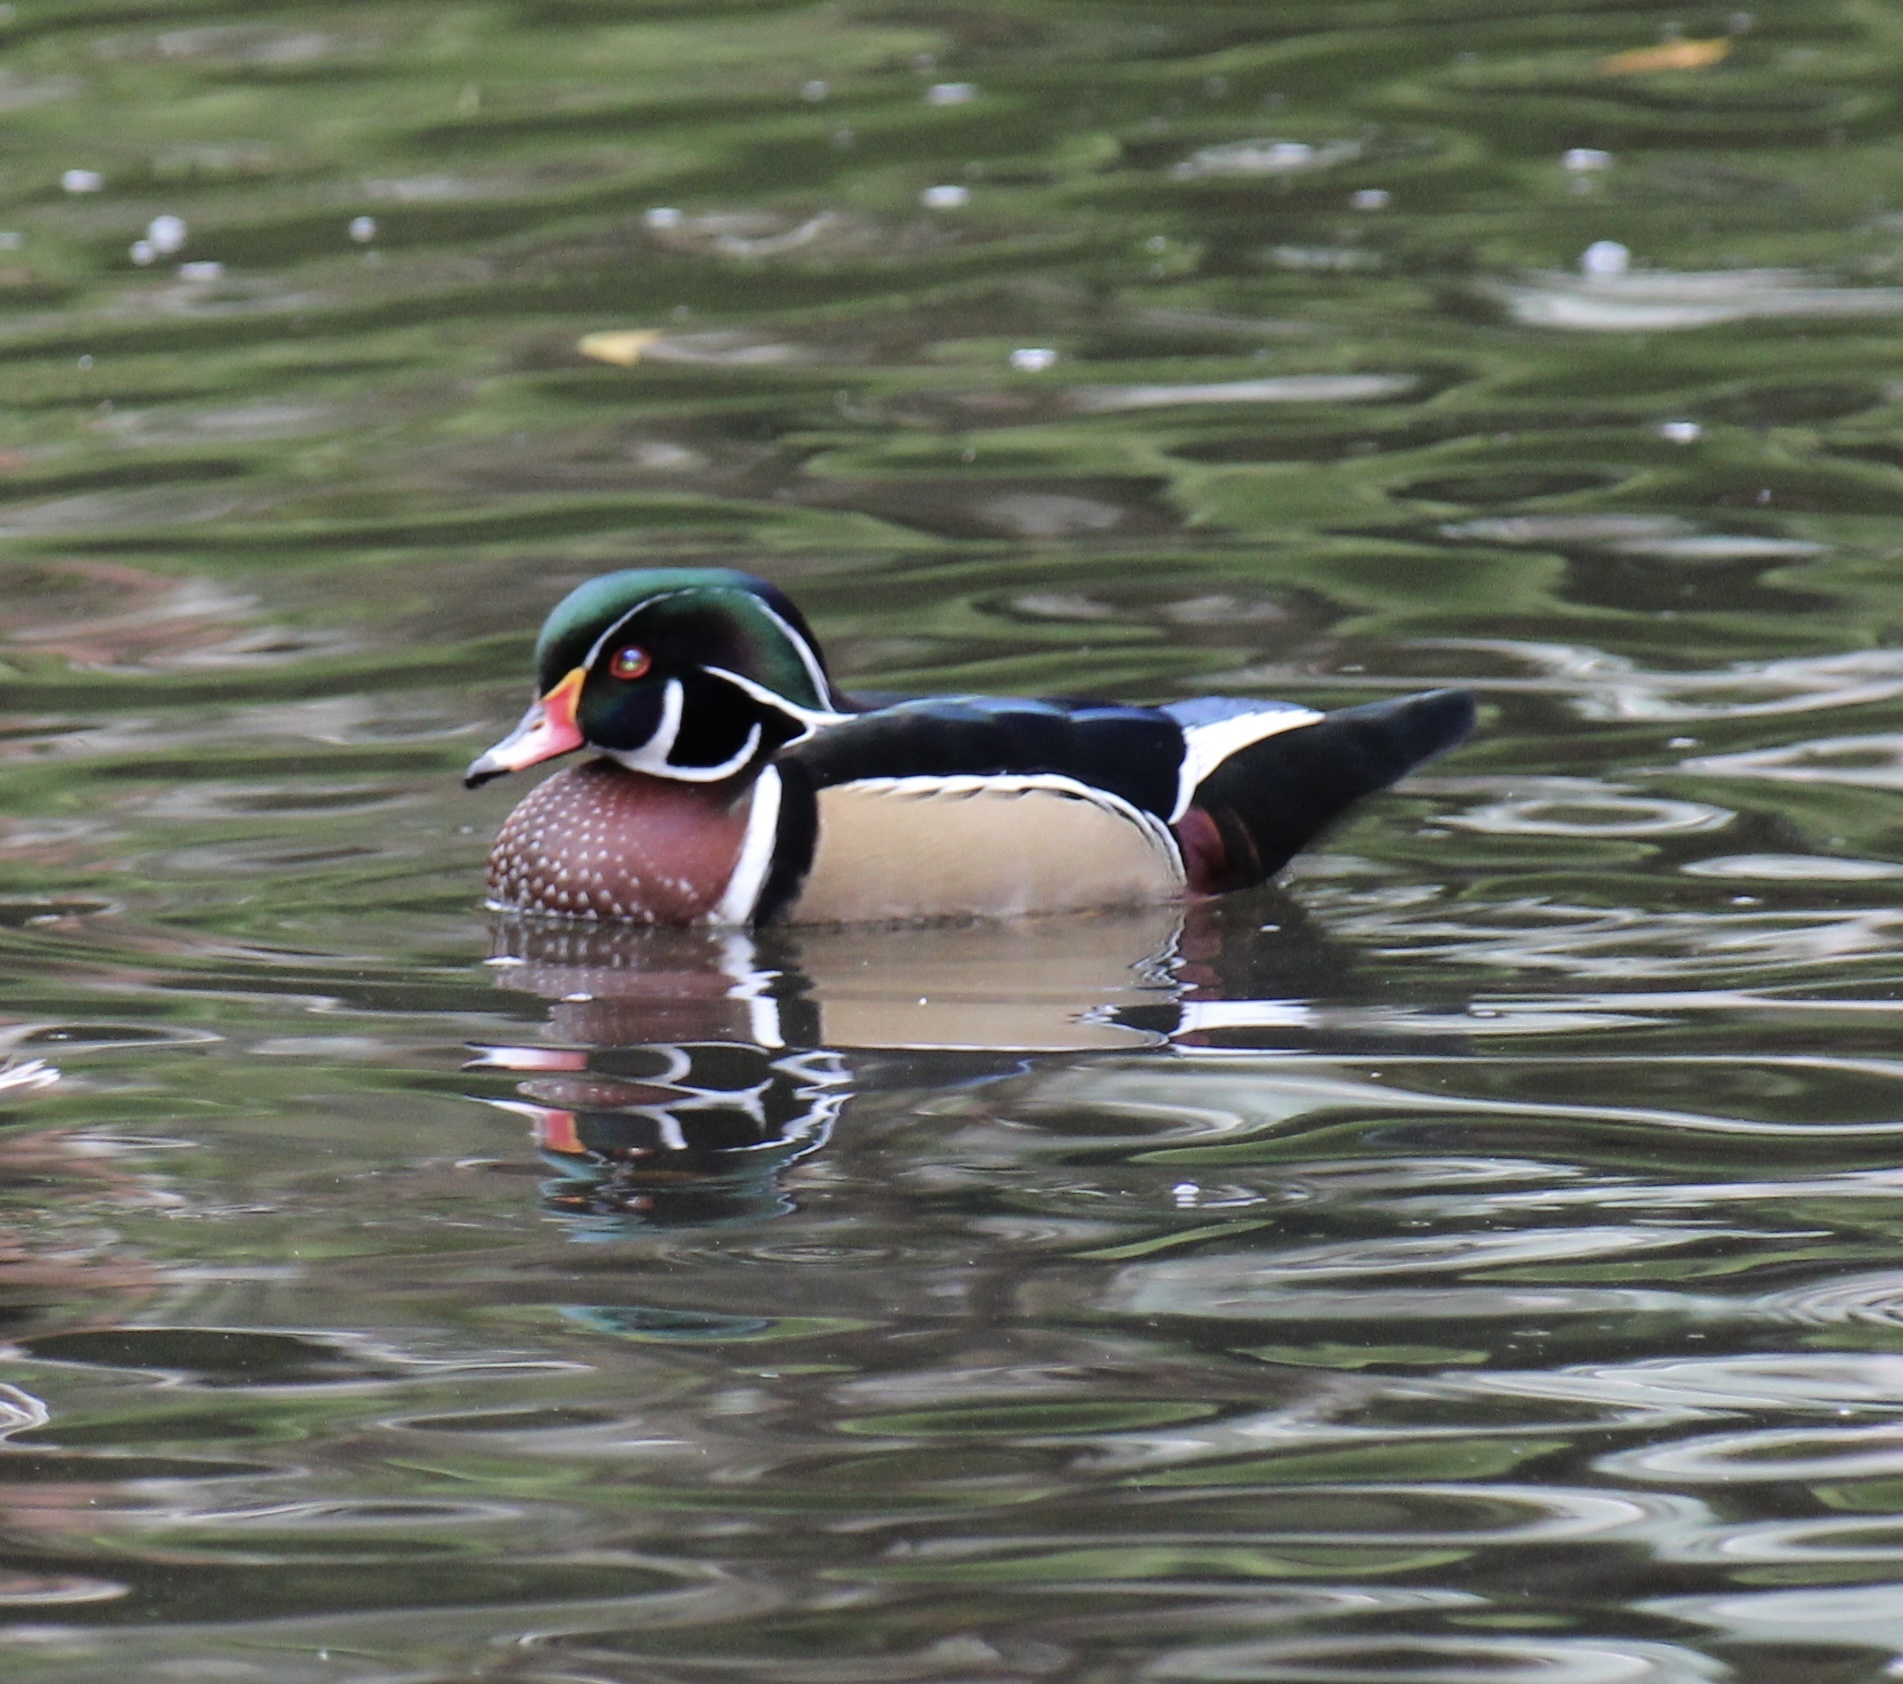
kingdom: Animalia
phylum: Chordata
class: Aves
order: Anseriformes
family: Anatidae
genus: Aix
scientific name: Aix sponsa
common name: Wood duck
